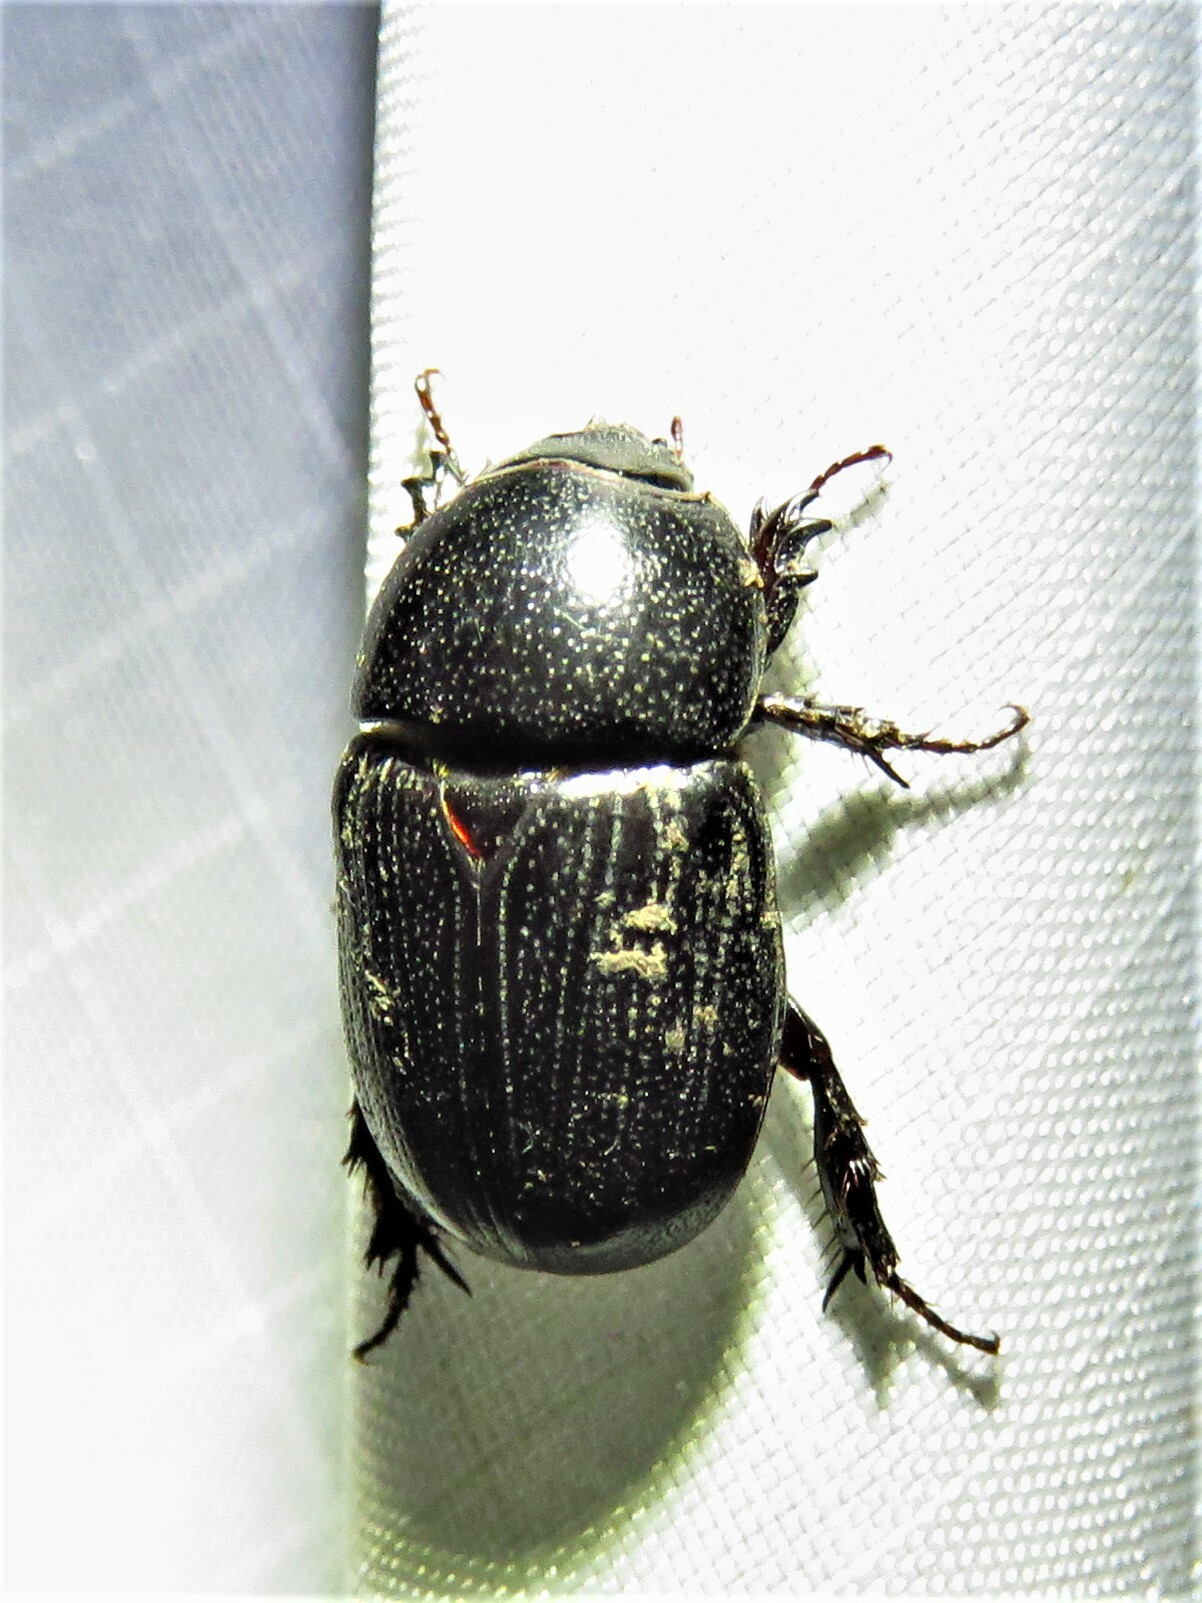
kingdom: Animalia
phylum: Arthropoda
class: Insecta
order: Coleoptera
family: Scarabaeidae
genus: Euetheola
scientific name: Euetheola humilis
